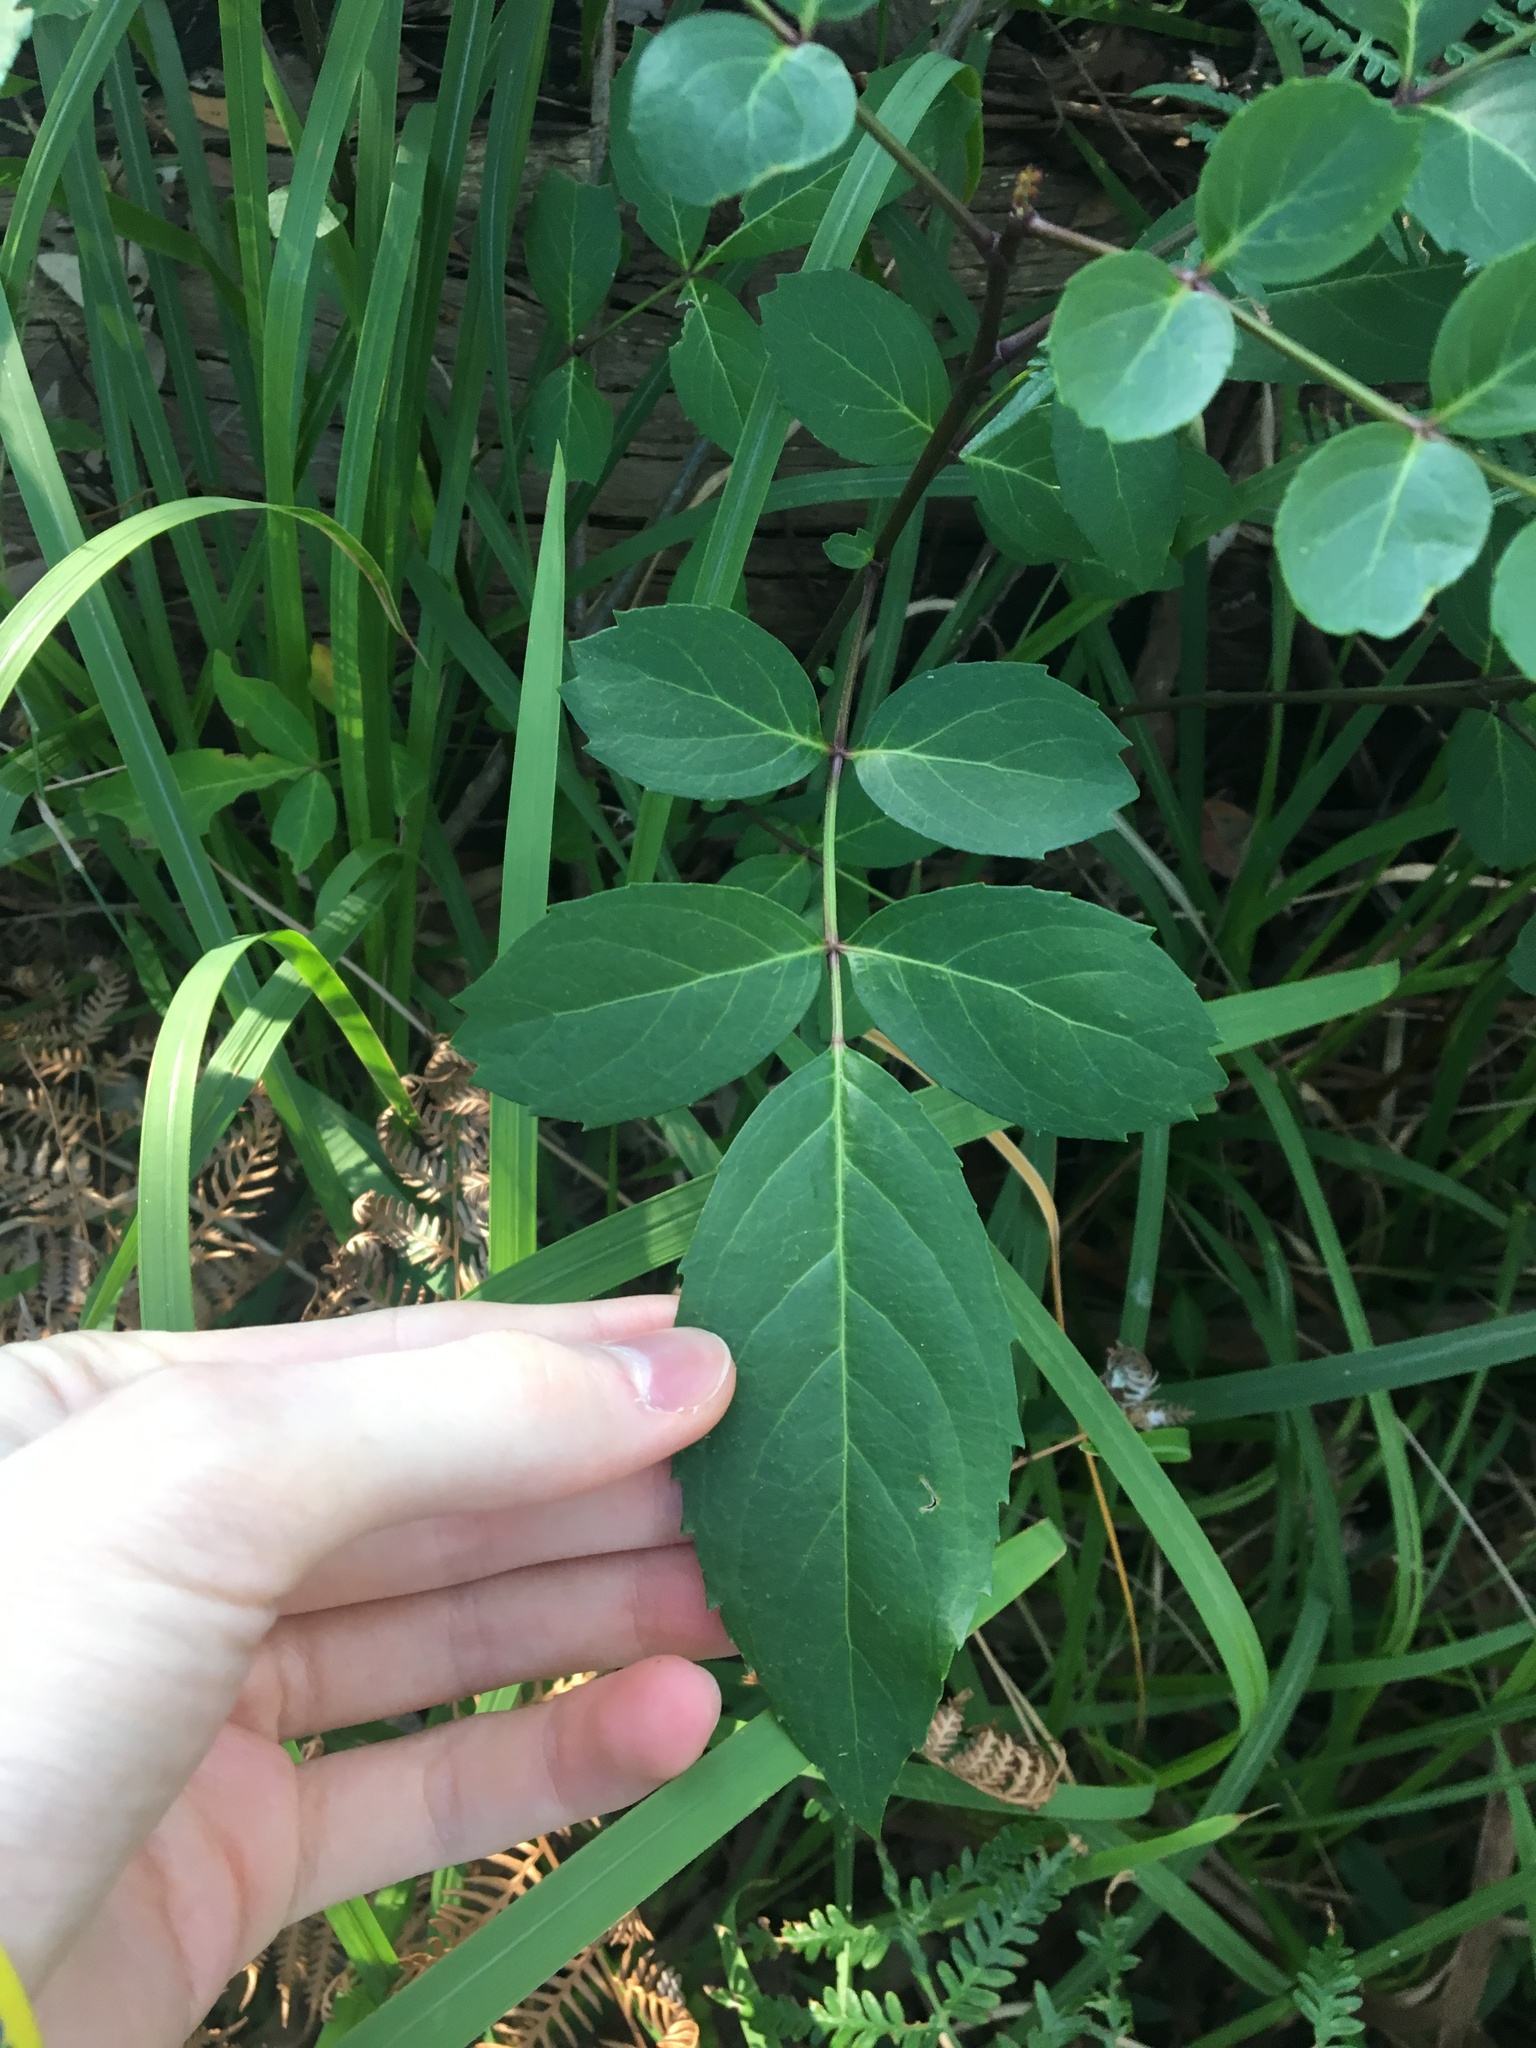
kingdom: Plantae
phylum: Tracheophyta
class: Magnoliopsida
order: Apiales
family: Araliaceae
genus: Polyscias
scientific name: Polyscias sambucifolia
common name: Elderberry-ash
